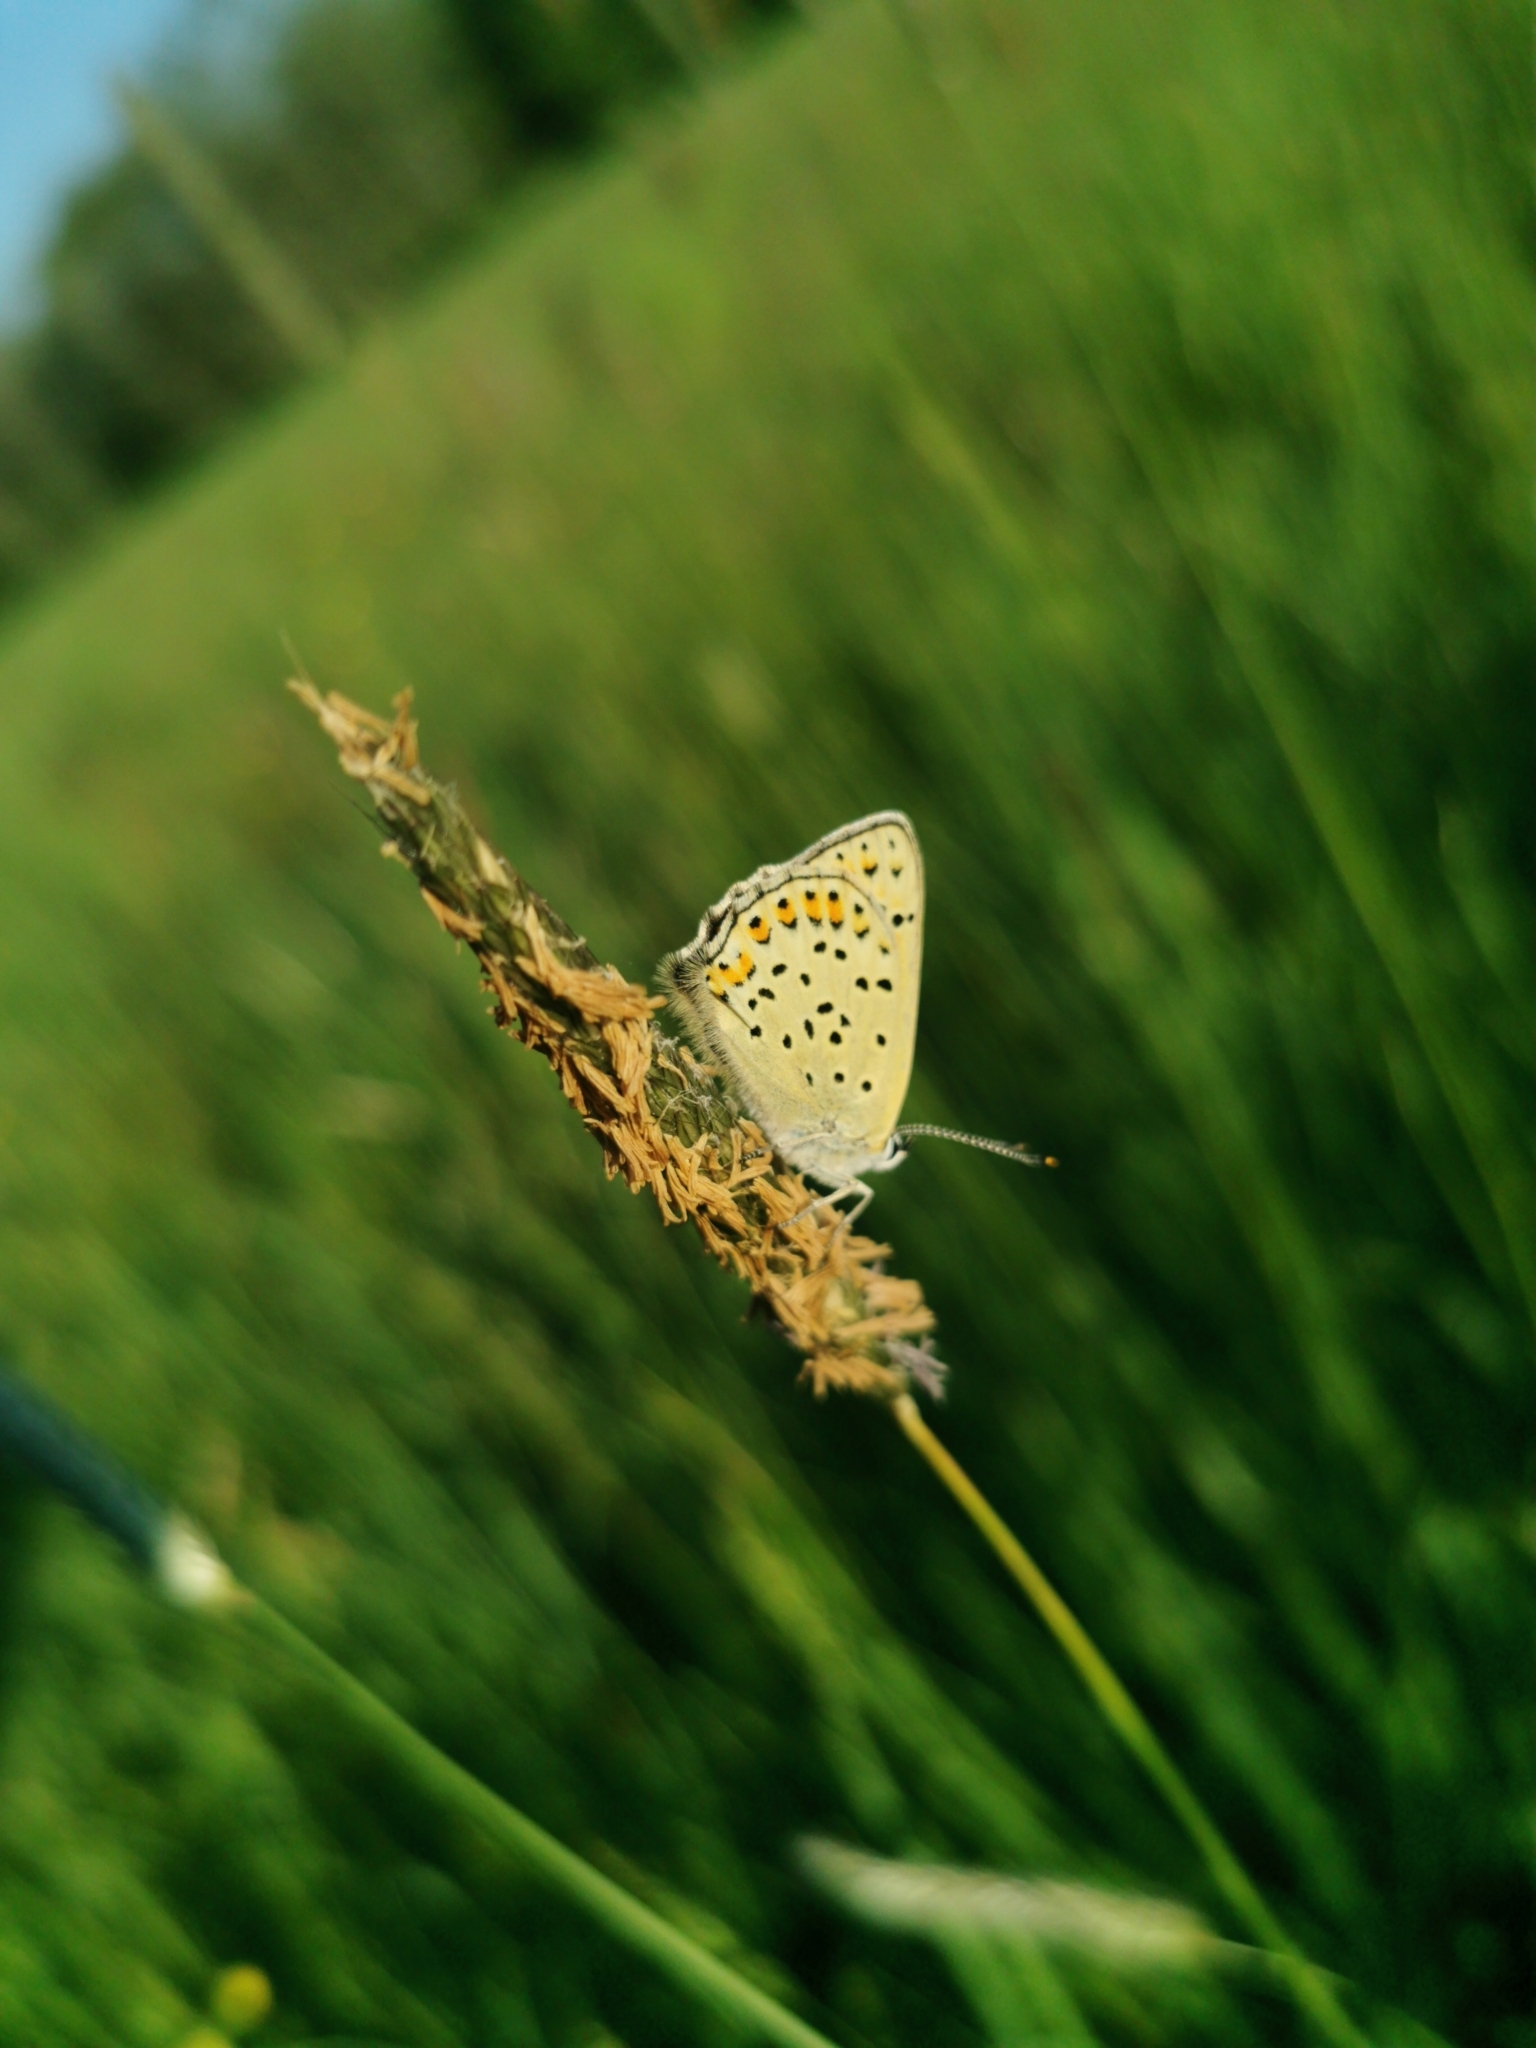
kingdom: Animalia
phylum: Arthropoda
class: Insecta
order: Lepidoptera
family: Lycaenidae
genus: Loweia
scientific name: Loweia tityrus
